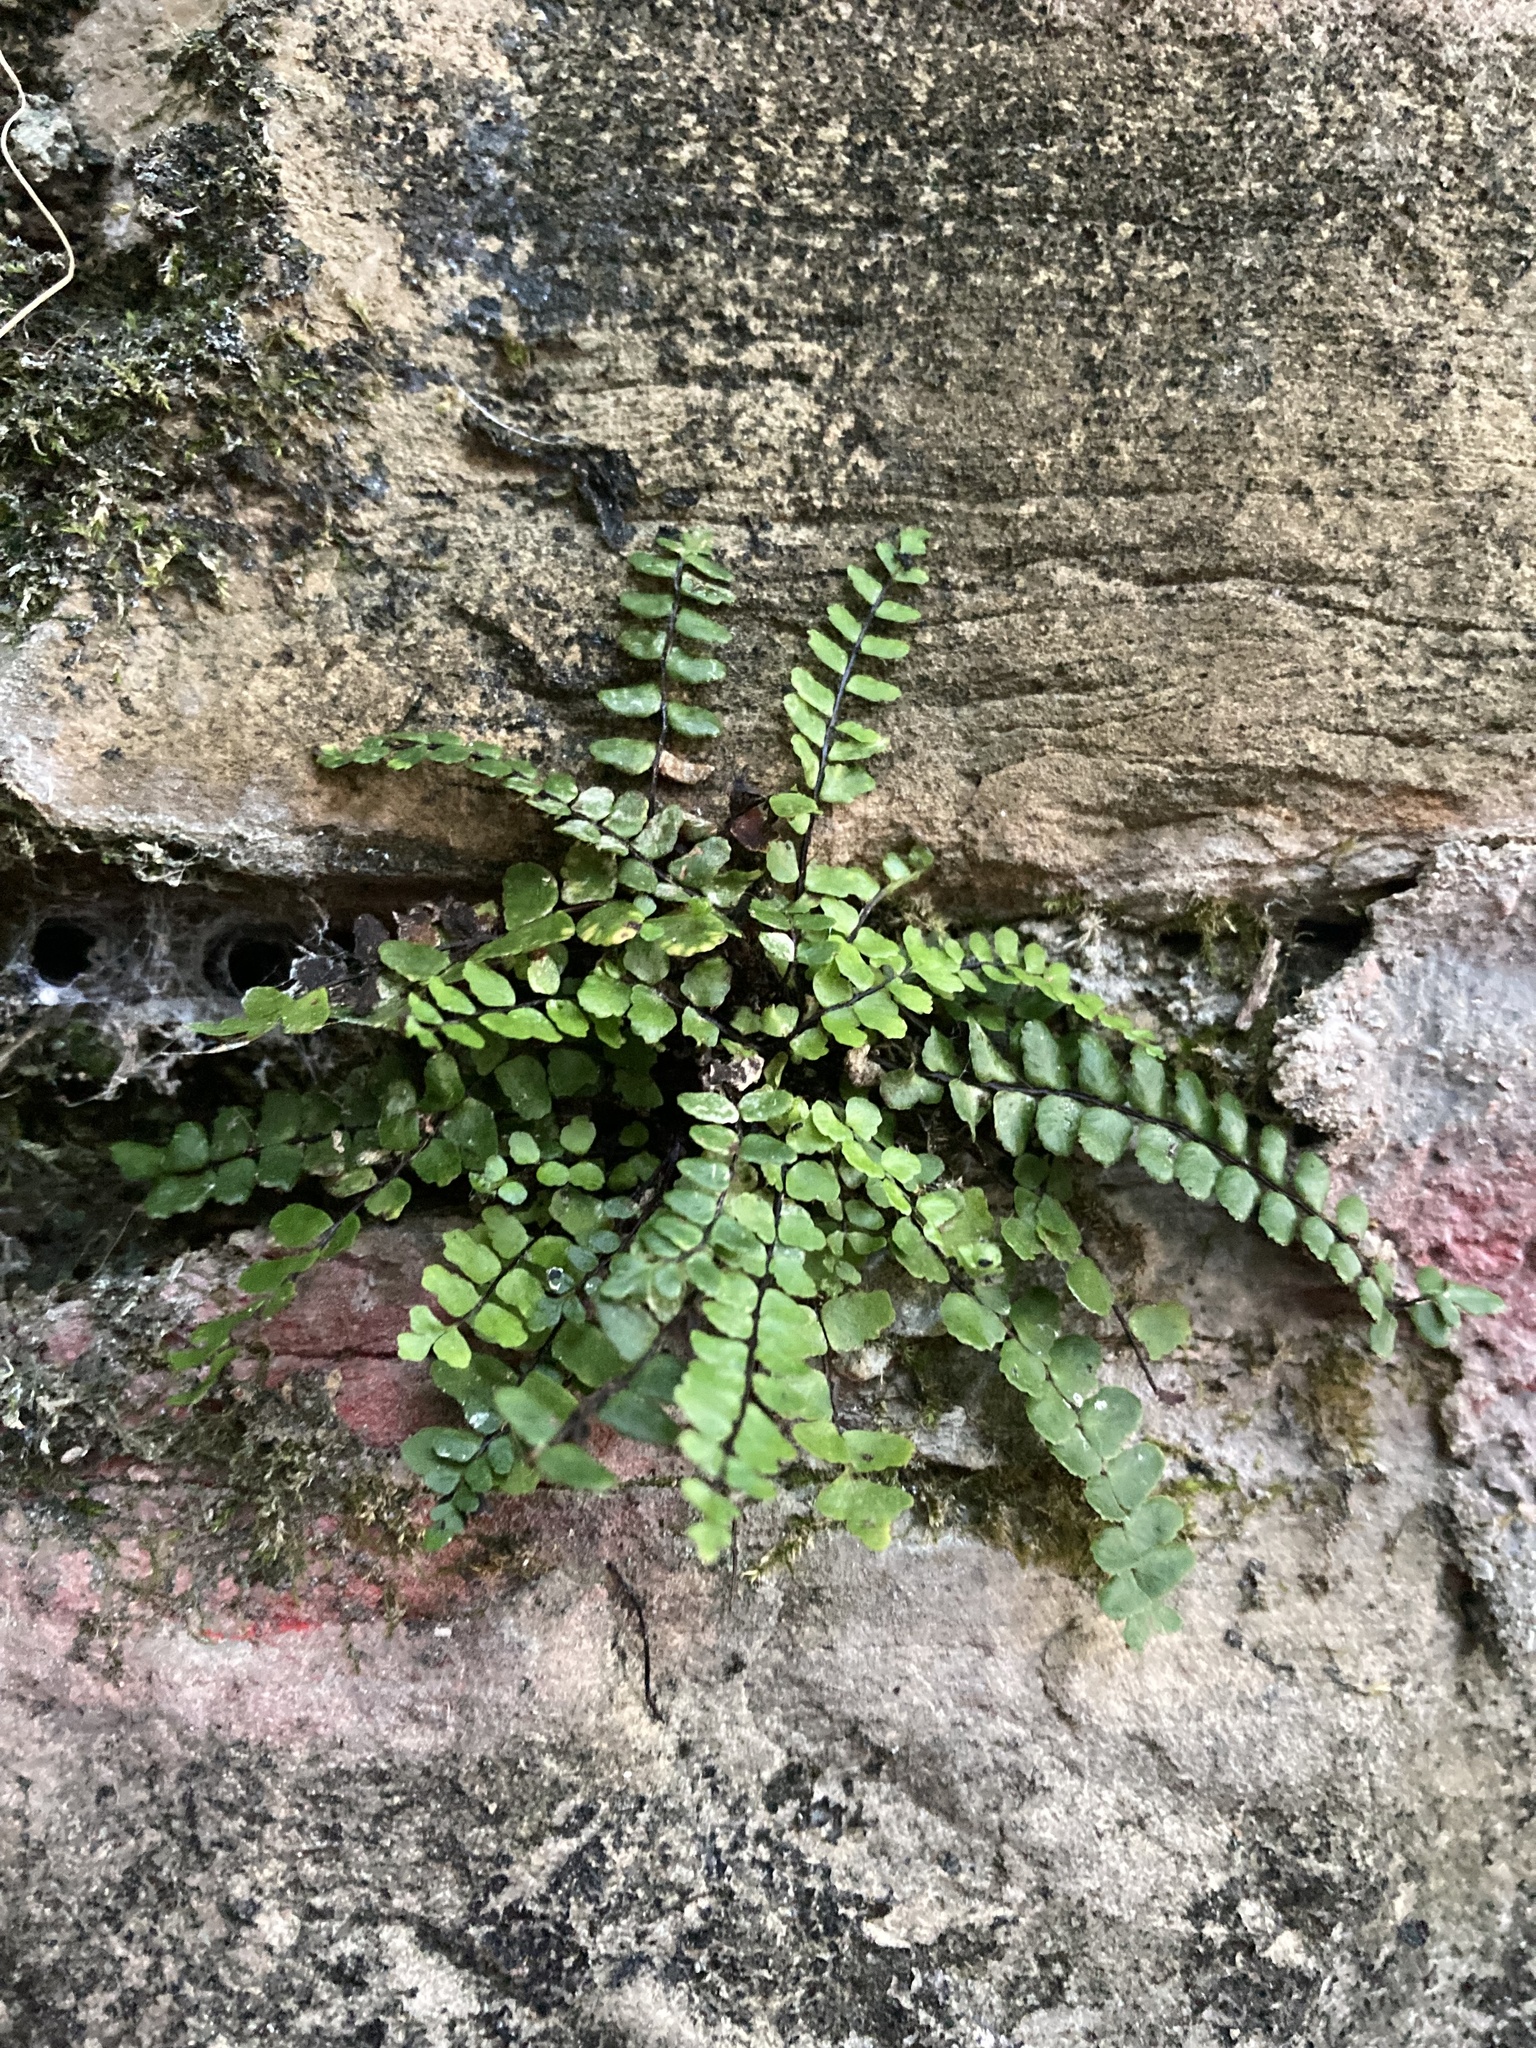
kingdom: Plantae
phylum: Tracheophyta
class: Polypodiopsida
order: Polypodiales
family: Aspleniaceae
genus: Asplenium
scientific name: Asplenium trichomanes
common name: Maidenhair spleenwort
